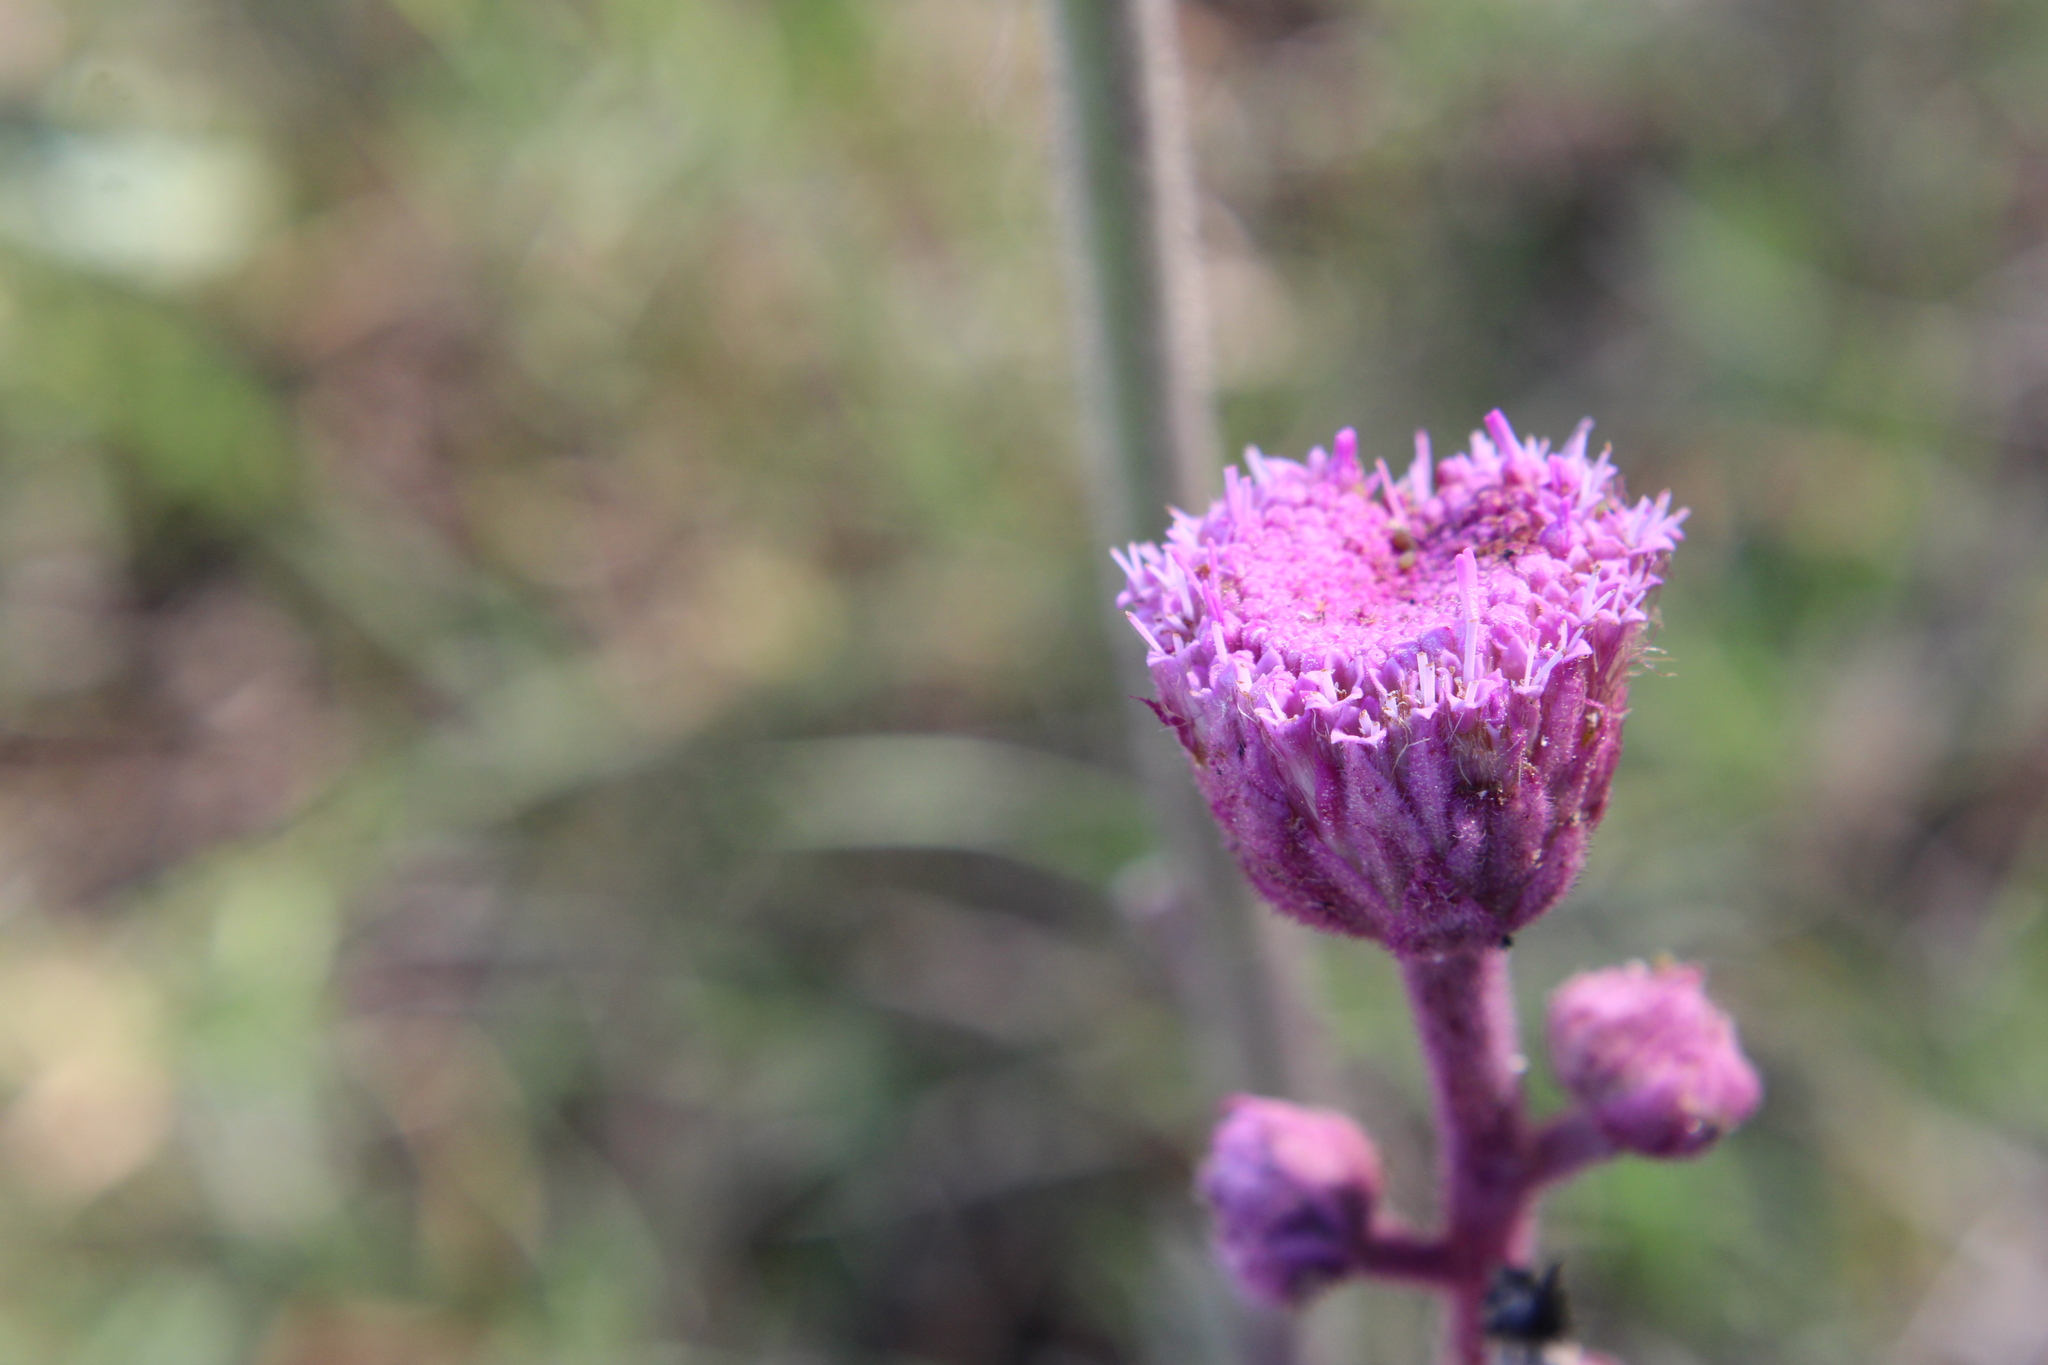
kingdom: Plantae
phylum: Tracheophyta
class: Magnoliopsida
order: Asterales
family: Asteraceae
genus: Campuloclinium
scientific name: Campuloclinium macrocephalum
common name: Pompomweed
